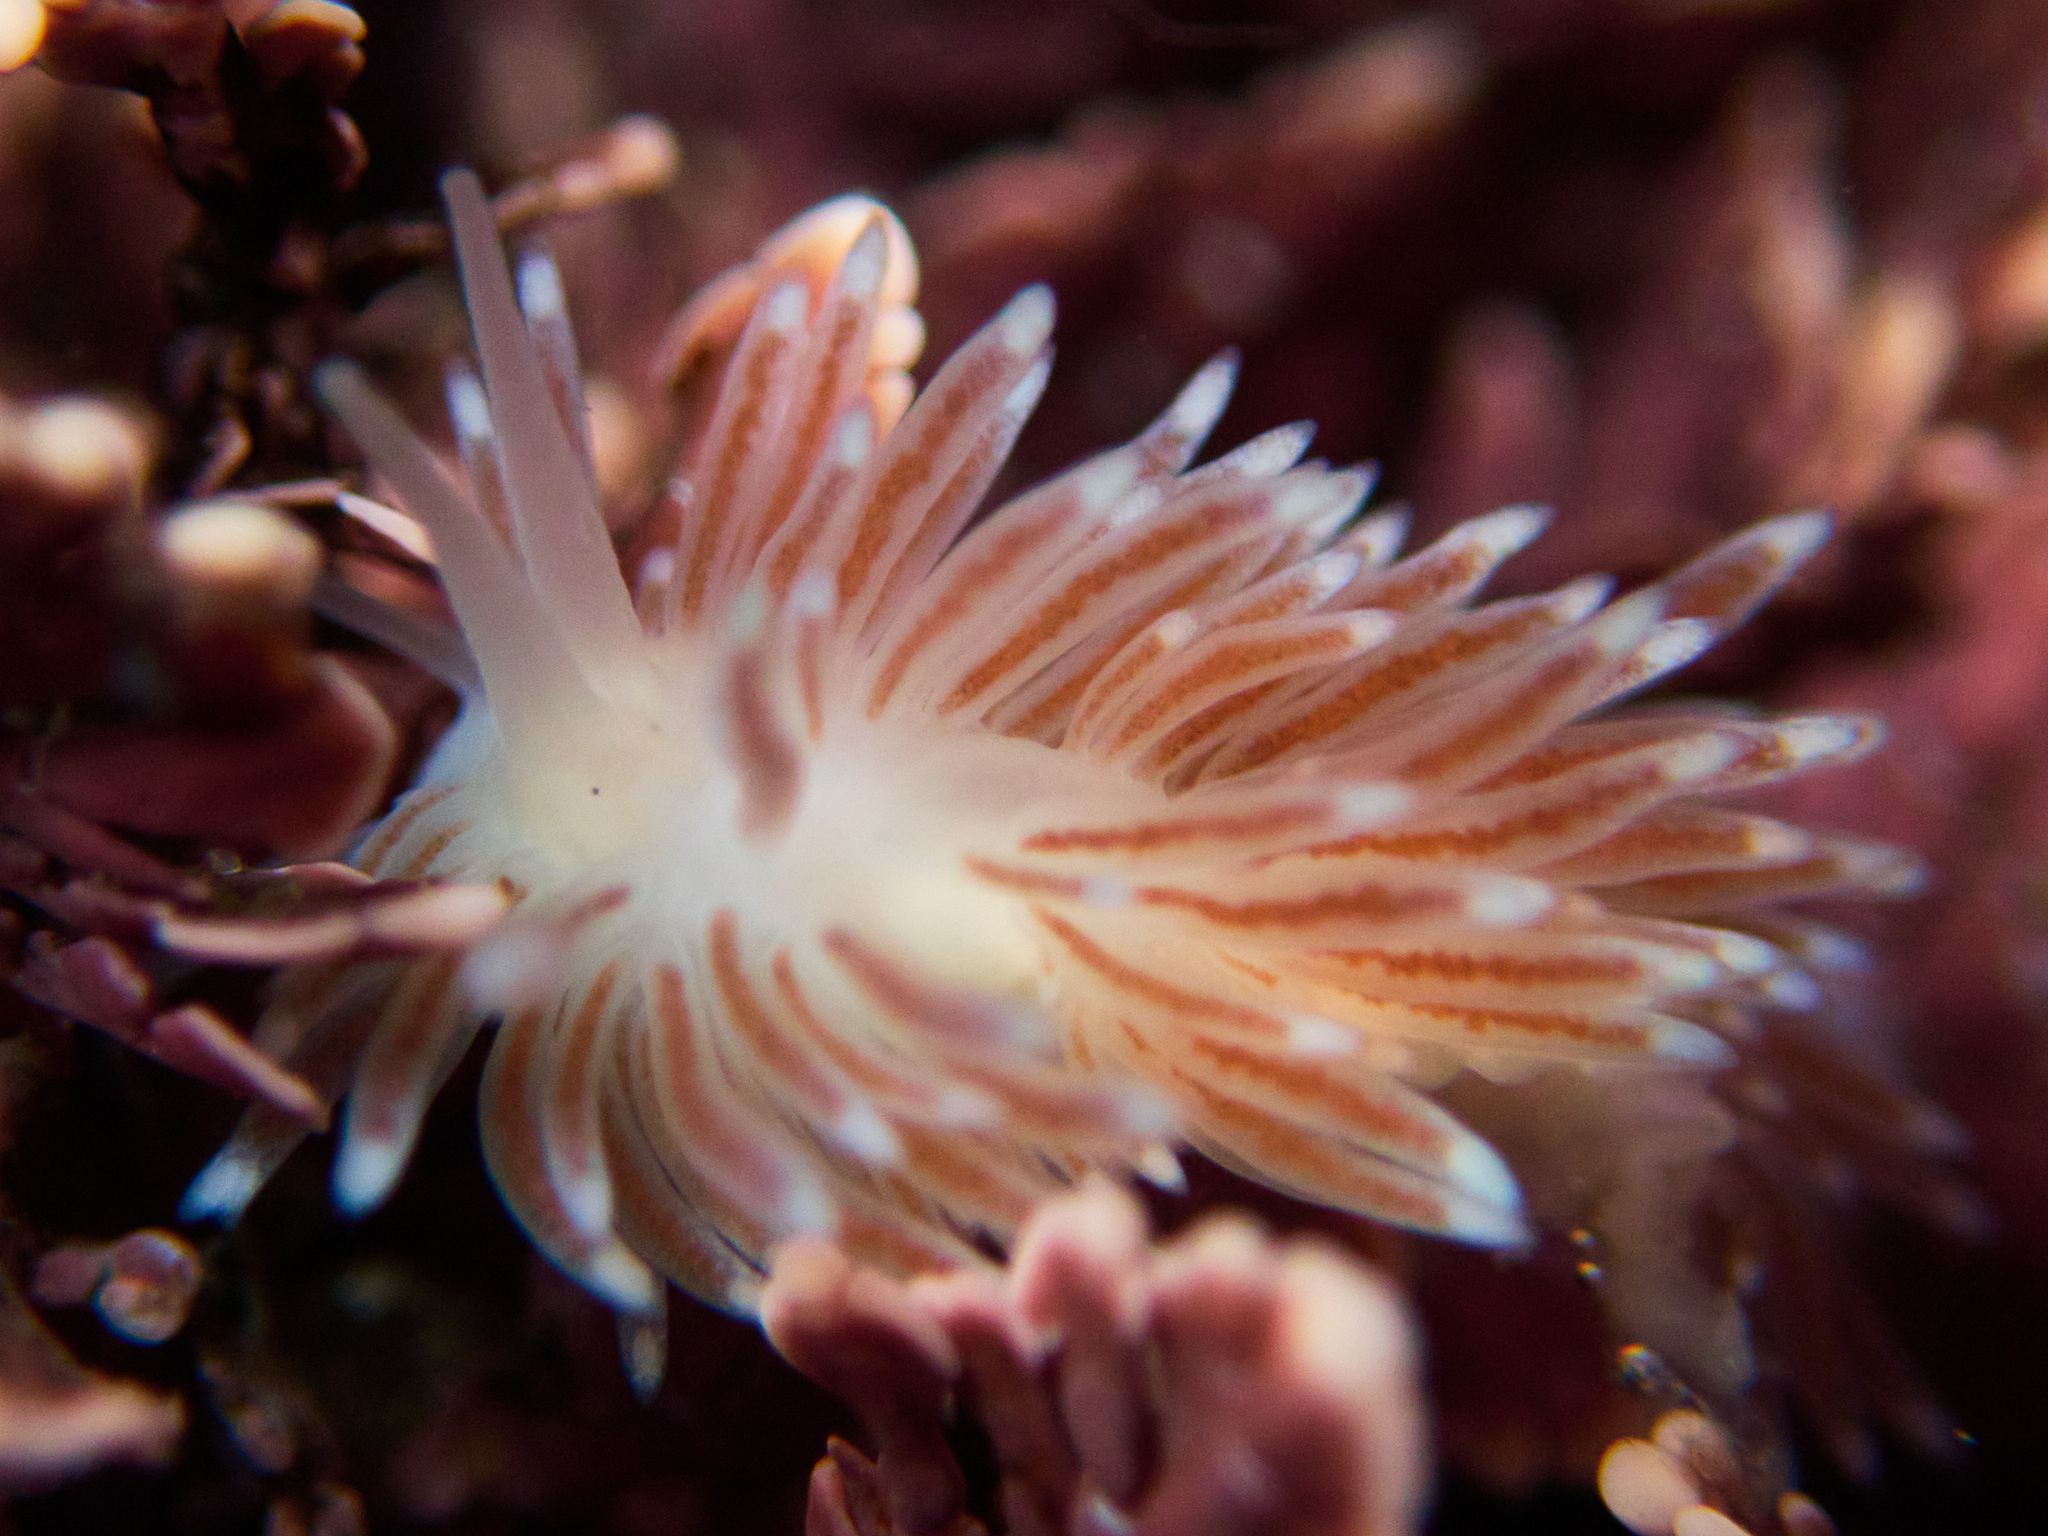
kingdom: Animalia
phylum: Mollusca
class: Gastropoda
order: Nudibranchia
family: Cuthonidae
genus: Cuthona
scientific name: Cuthona divae
